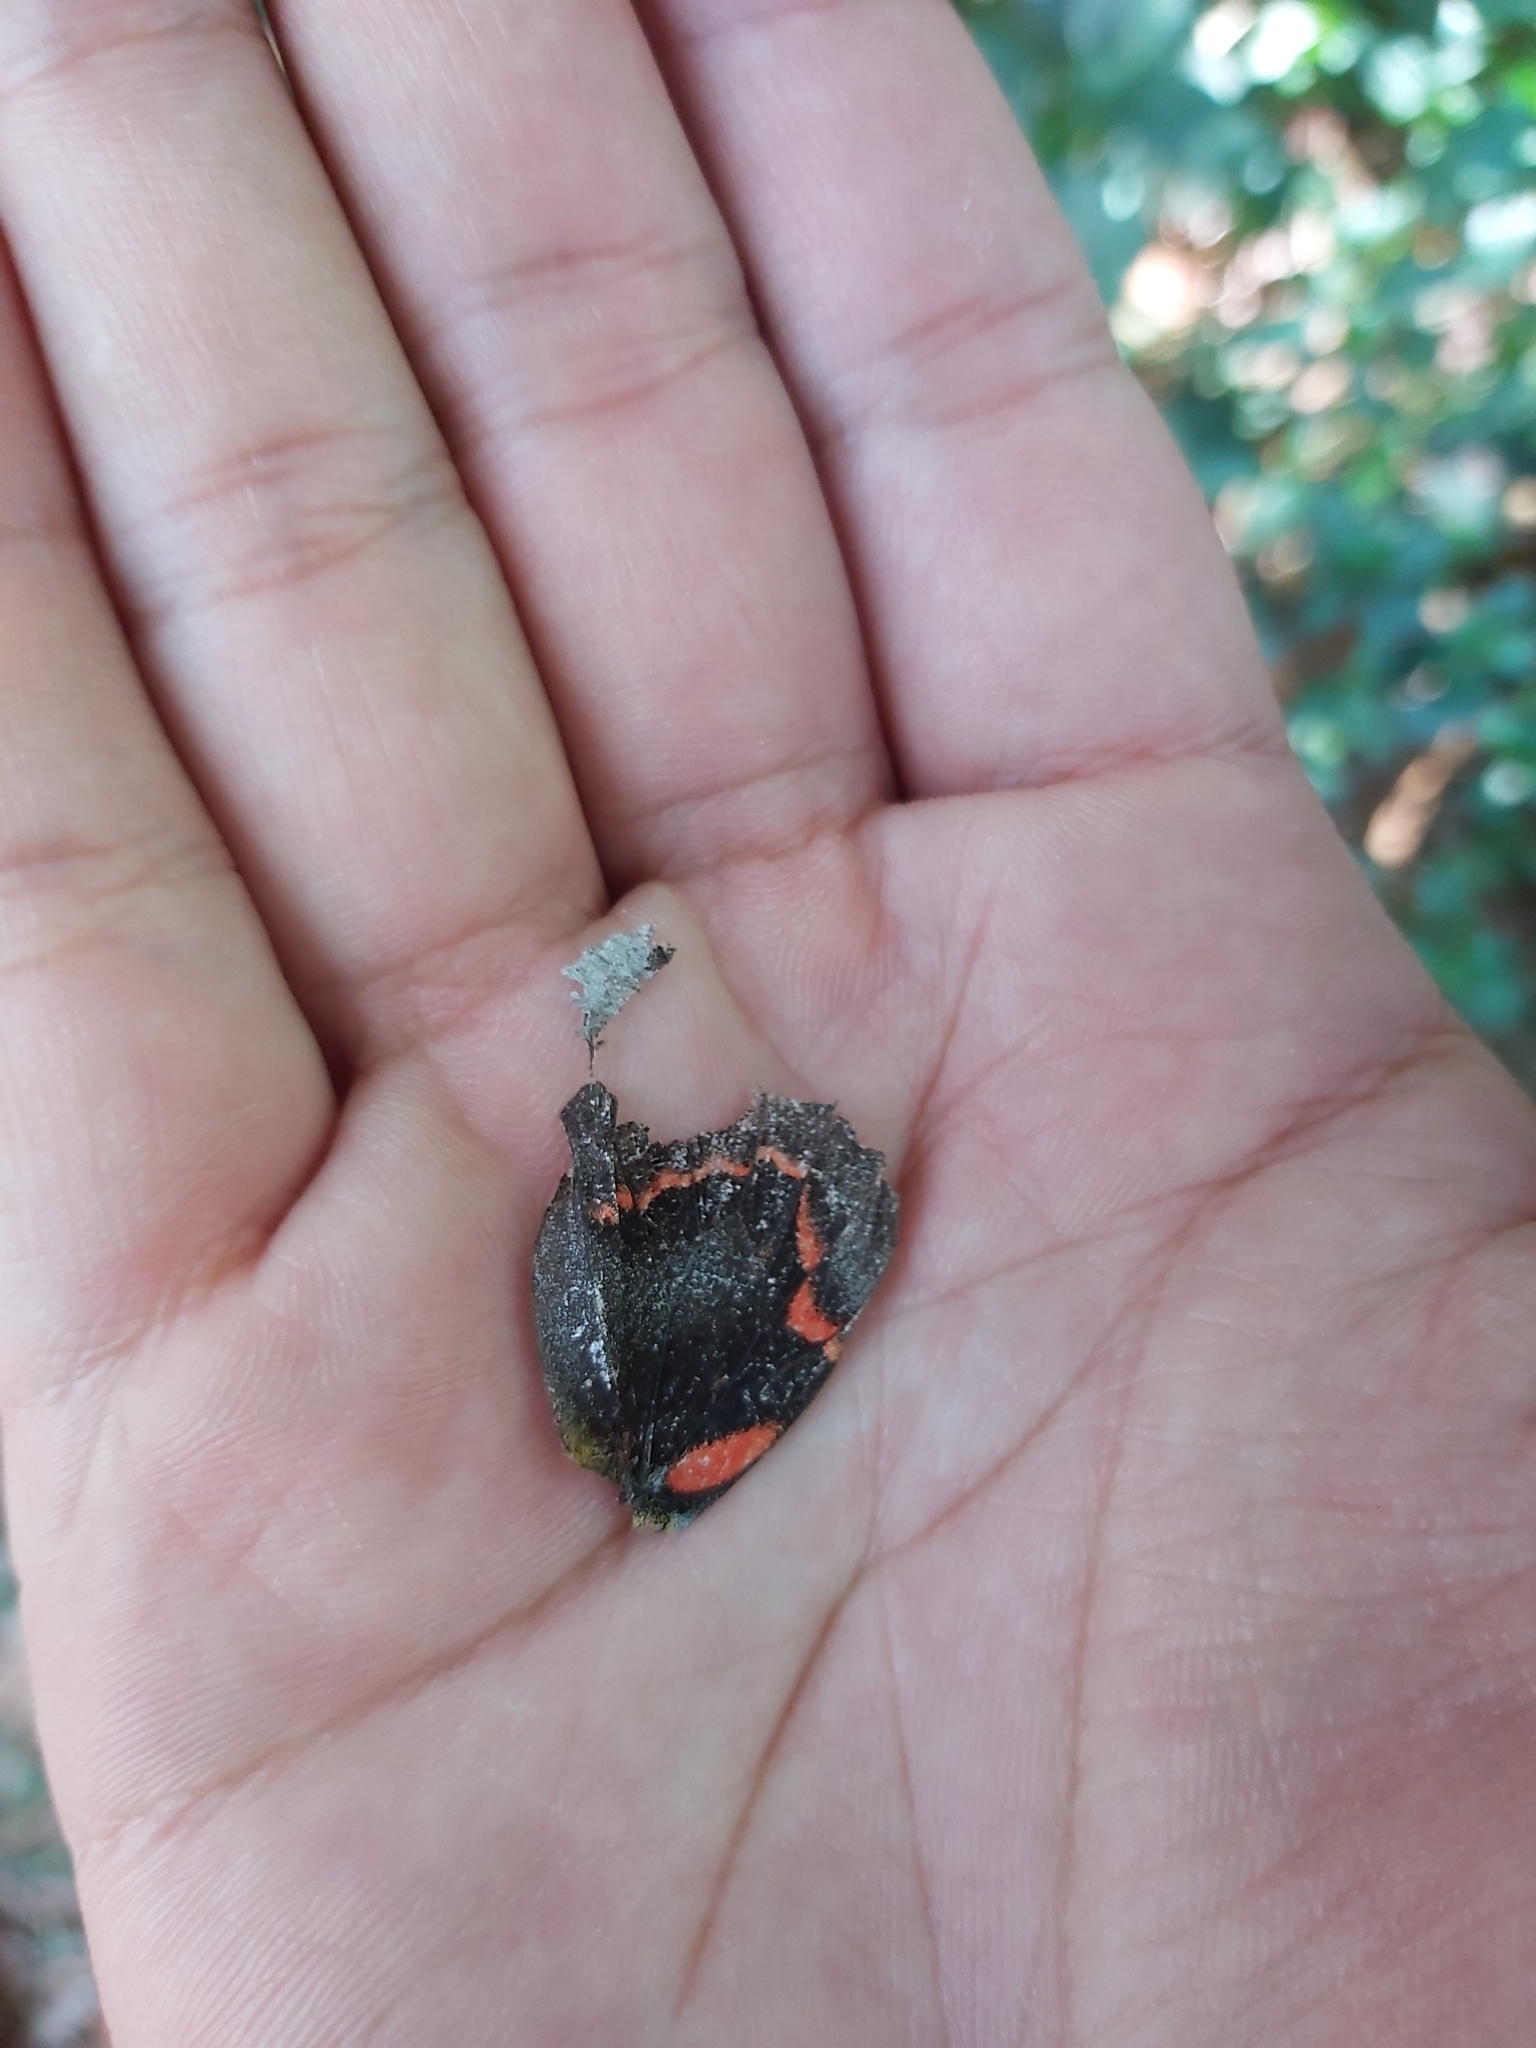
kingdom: Animalia
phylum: Arthropoda
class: Insecta
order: Lepidoptera
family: Pieridae
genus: Delias
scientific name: Delias nigrina
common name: Black jezebel
